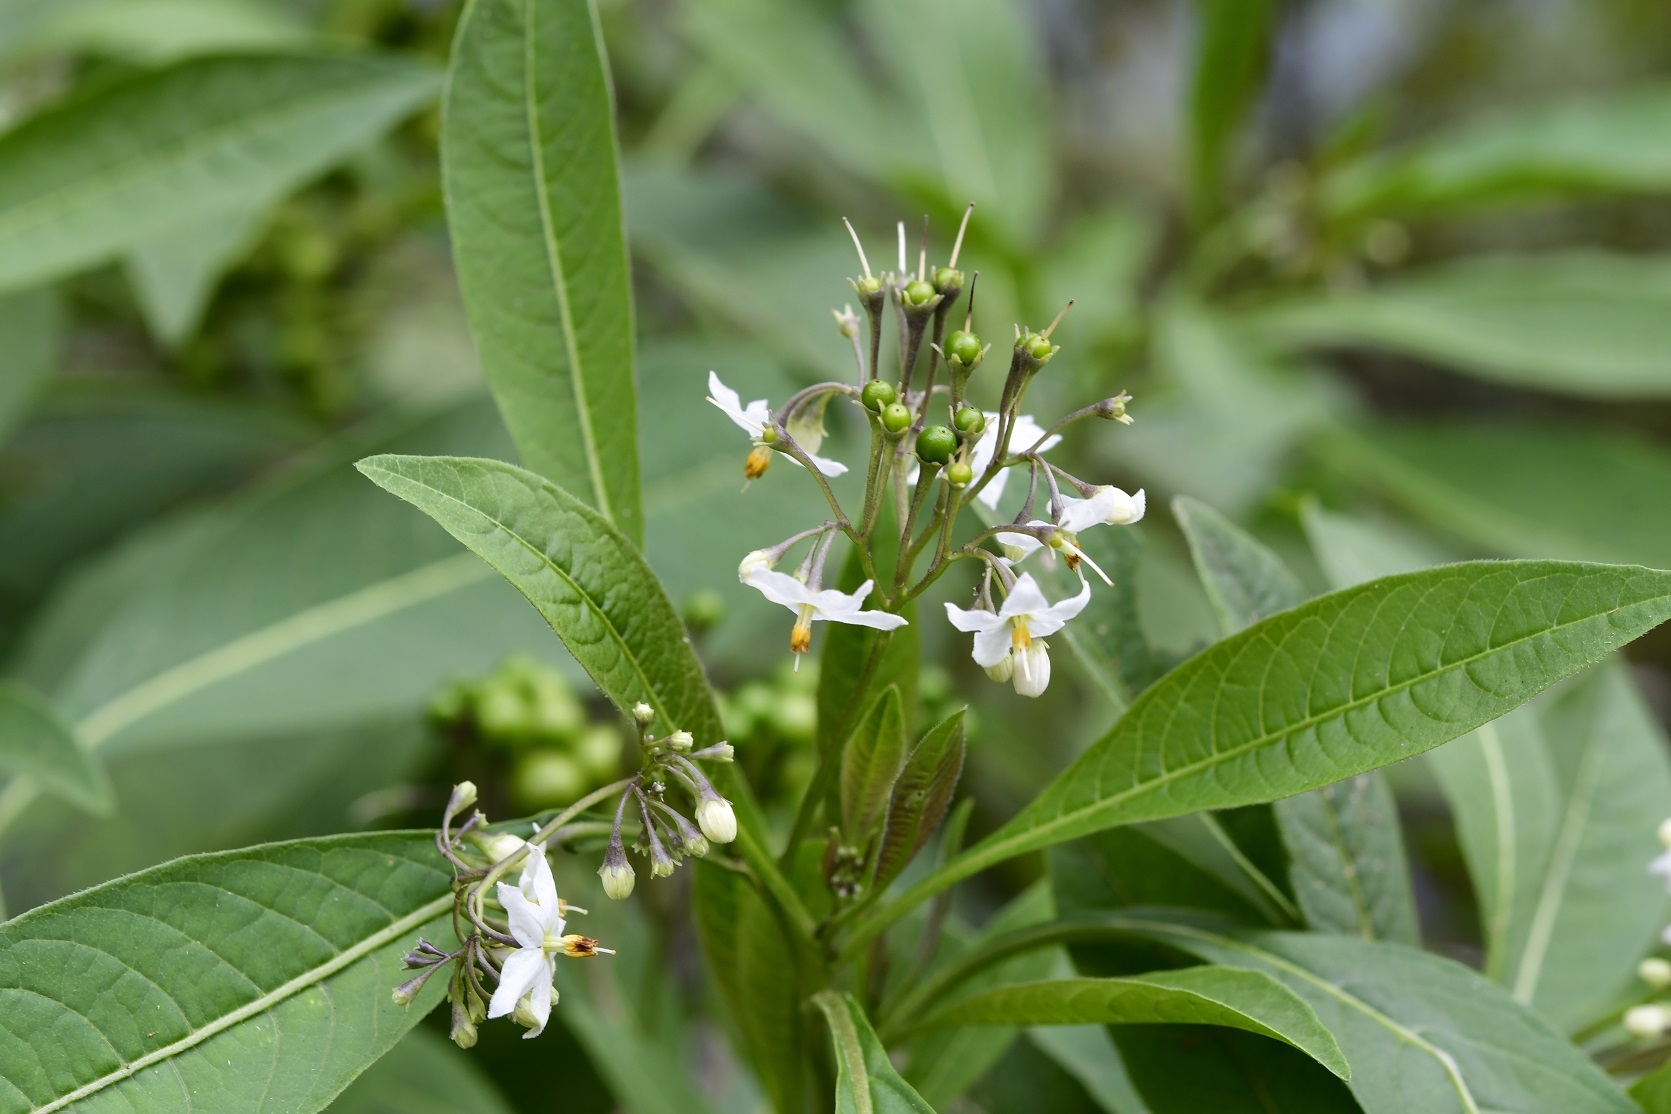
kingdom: Plantae
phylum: Tracheophyta
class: Magnoliopsida
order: Solanales
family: Solanaceae
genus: Solanum
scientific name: Solanum pubigerum
